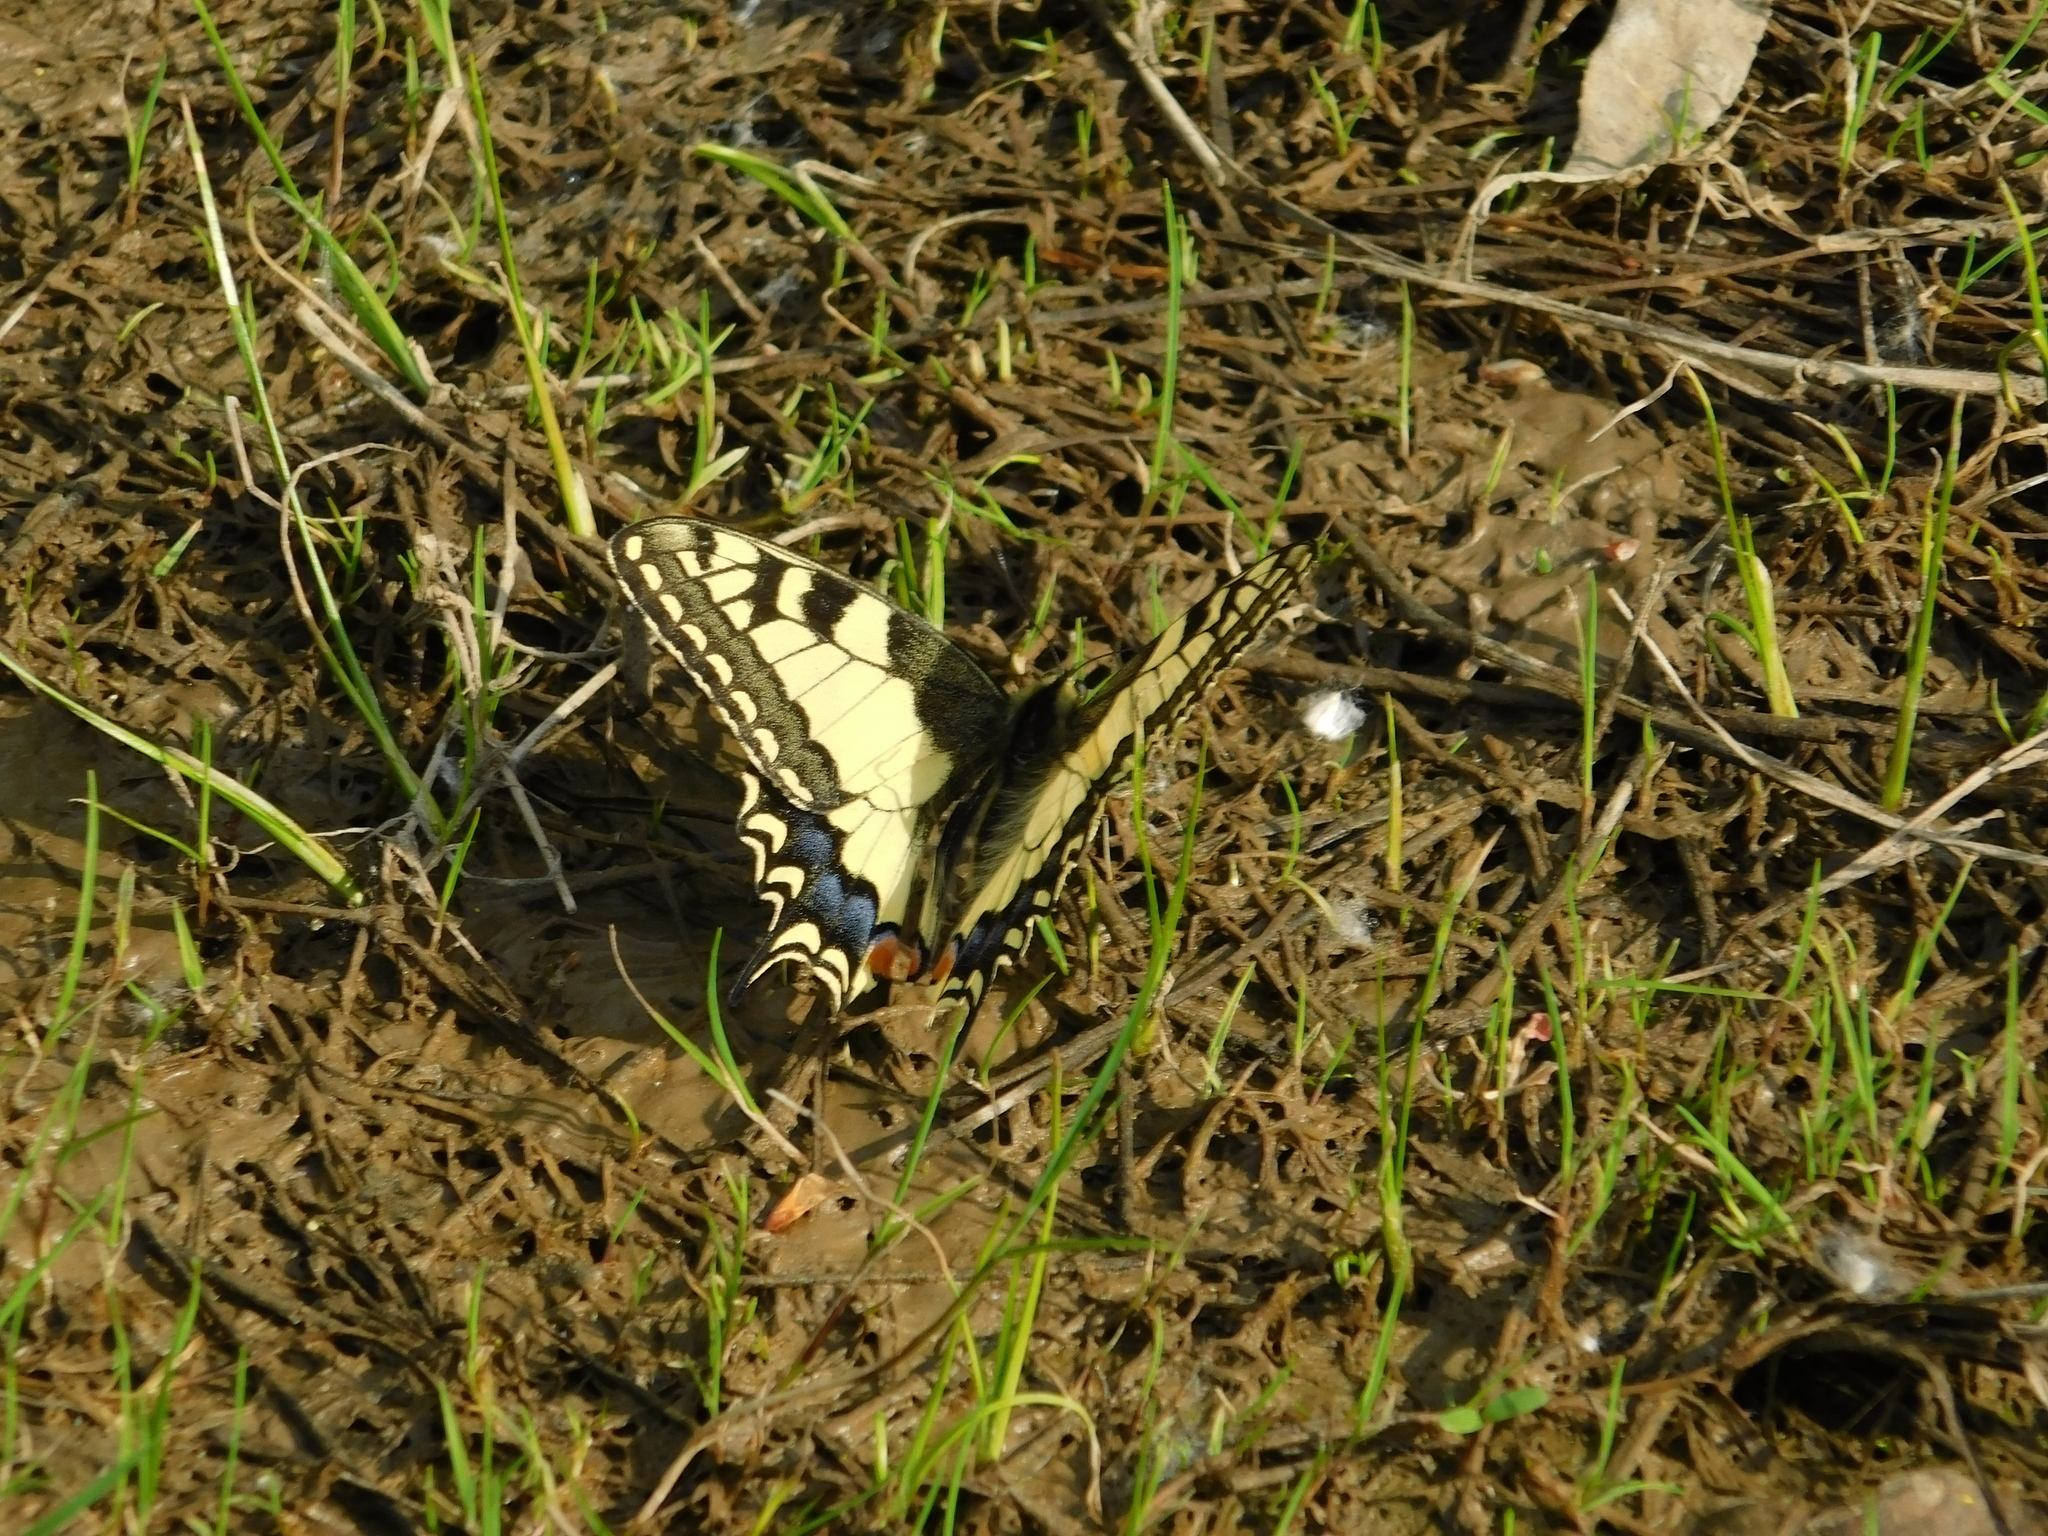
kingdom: Animalia
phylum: Arthropoda
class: Insecta
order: Lepidoptera
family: Papilionidae
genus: Papilio
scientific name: Papilio machaon
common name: Swallowtail
